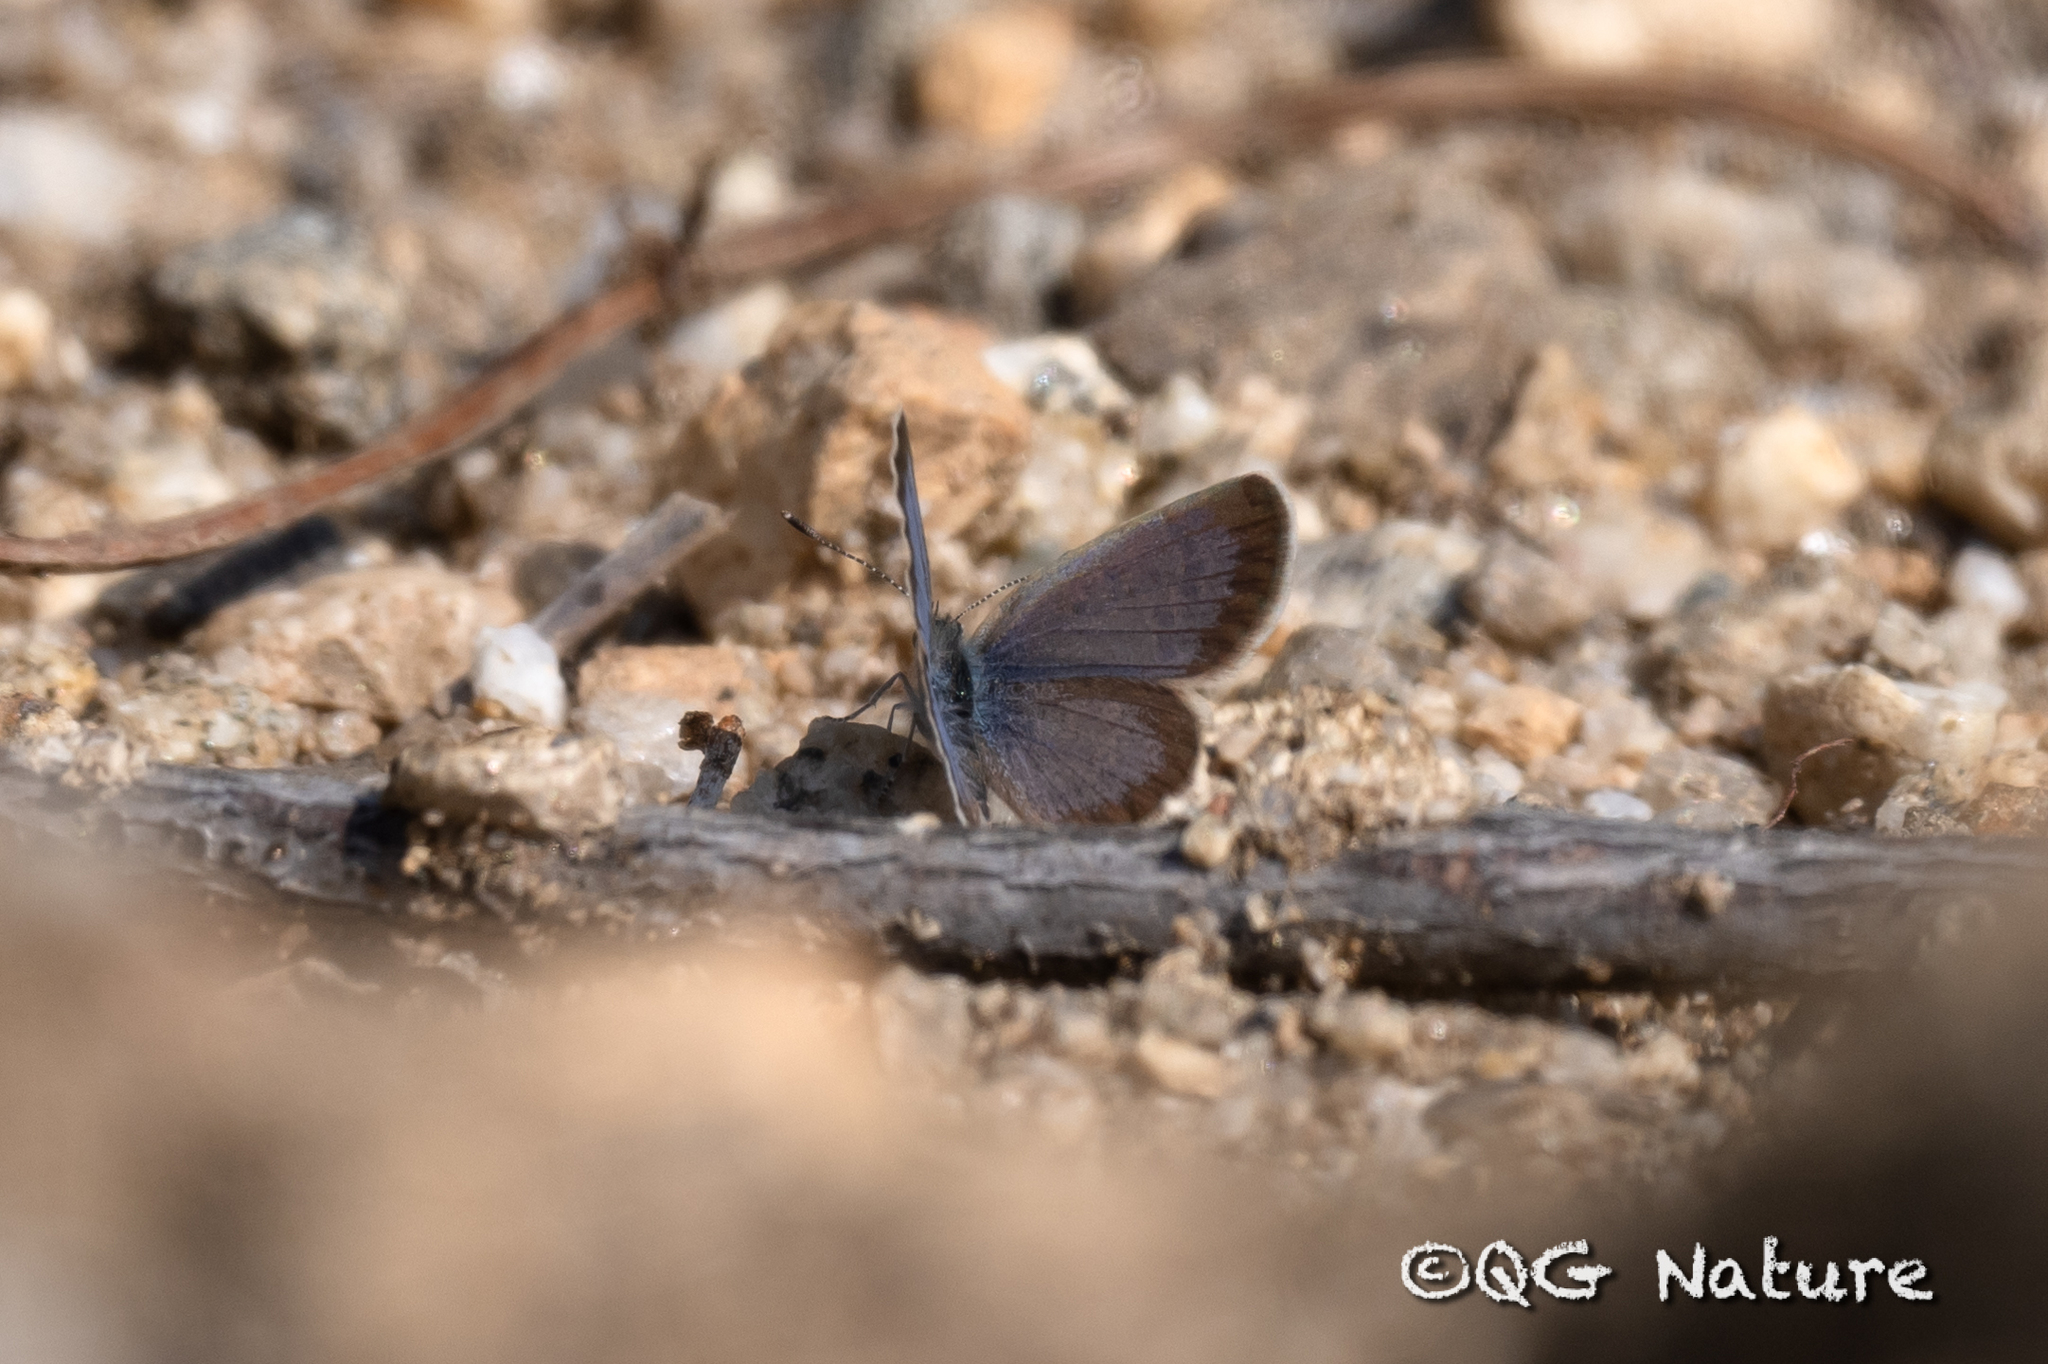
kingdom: Animalia
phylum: Arthropoda
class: Insecta
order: Lepidoptera
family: Lycaenidae
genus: Zizina
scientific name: Zizina otis
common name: Lesser grass blue
